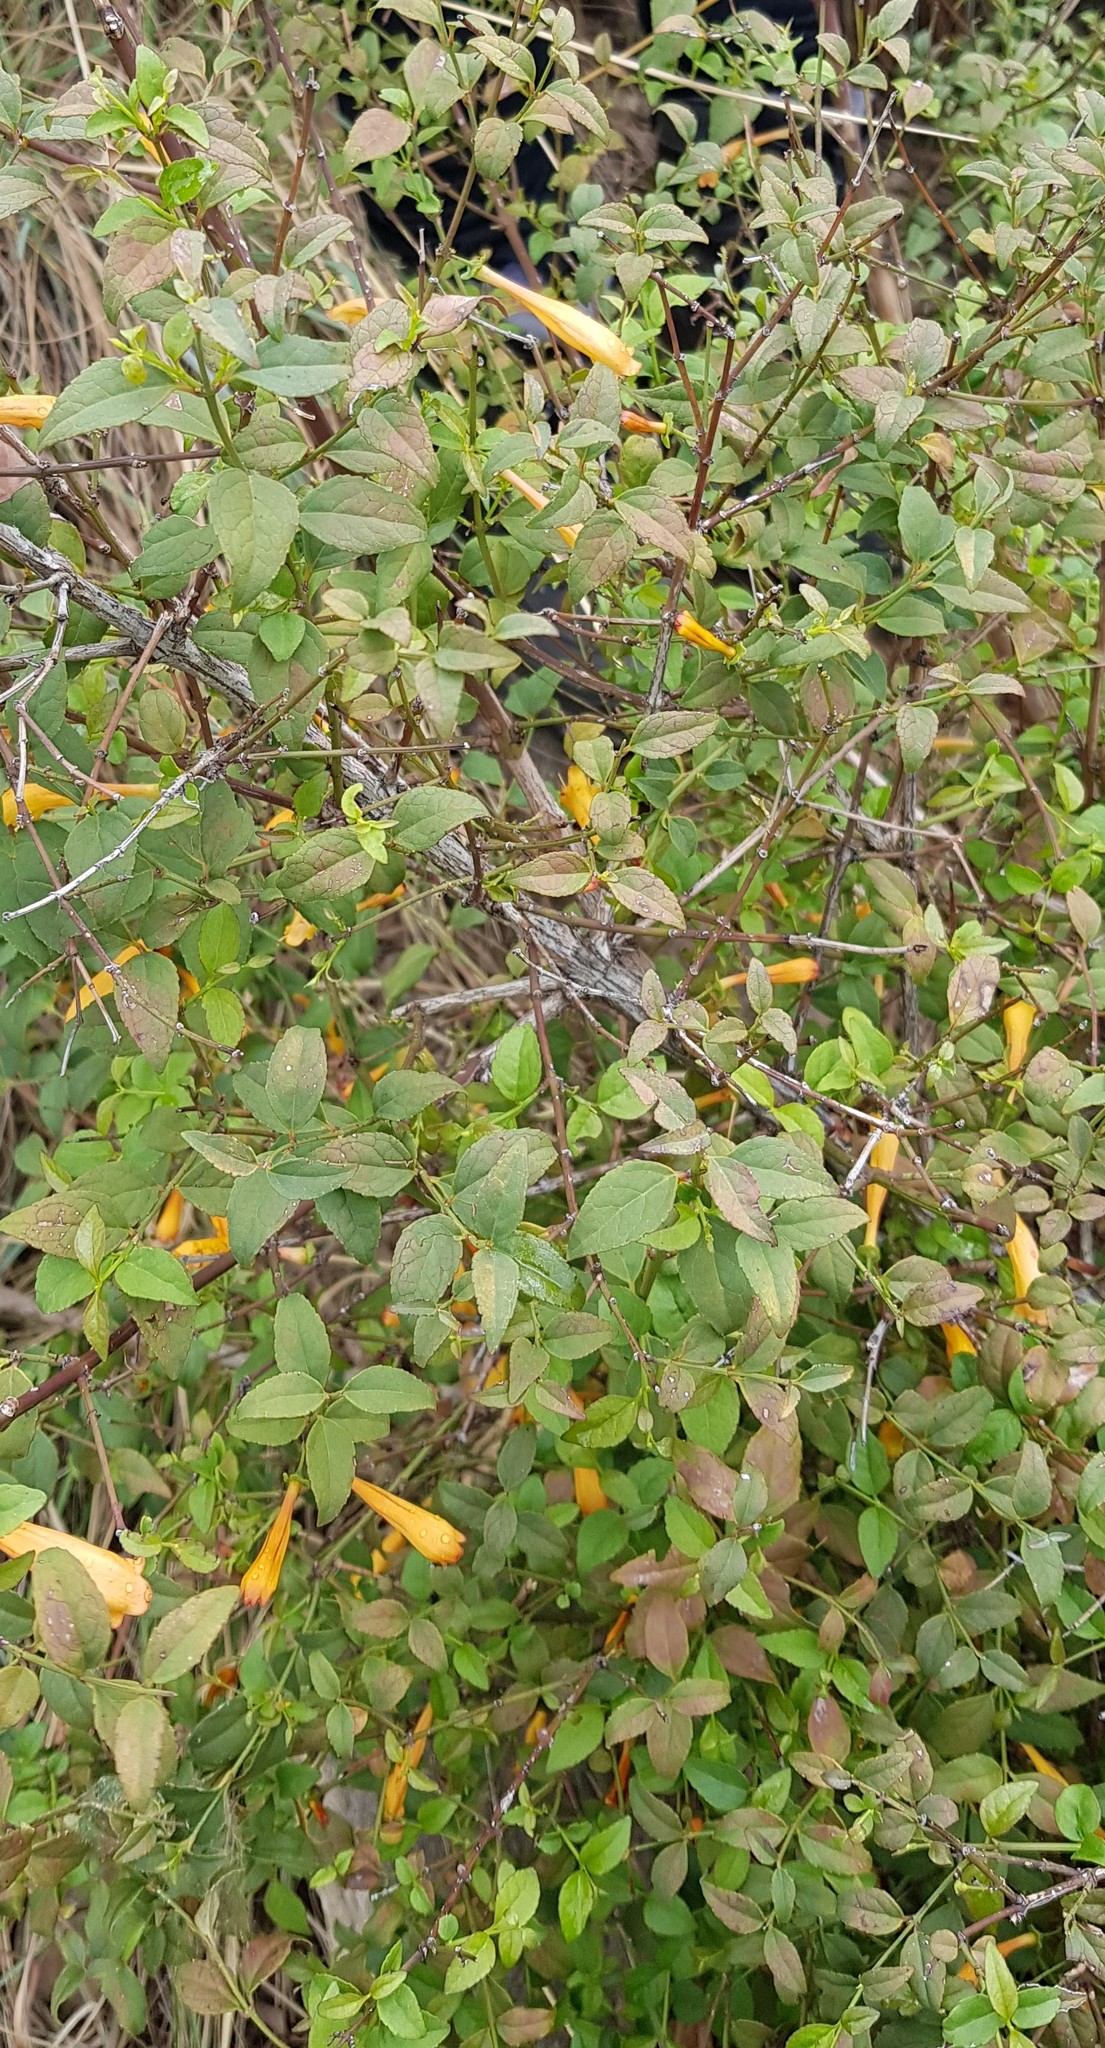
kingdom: Plantae
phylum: Tracheophyta
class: Magnoliopsida
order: Lamiales
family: Stilbaceae
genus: Halleria
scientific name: Halleria lucida
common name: Tree fuschia
